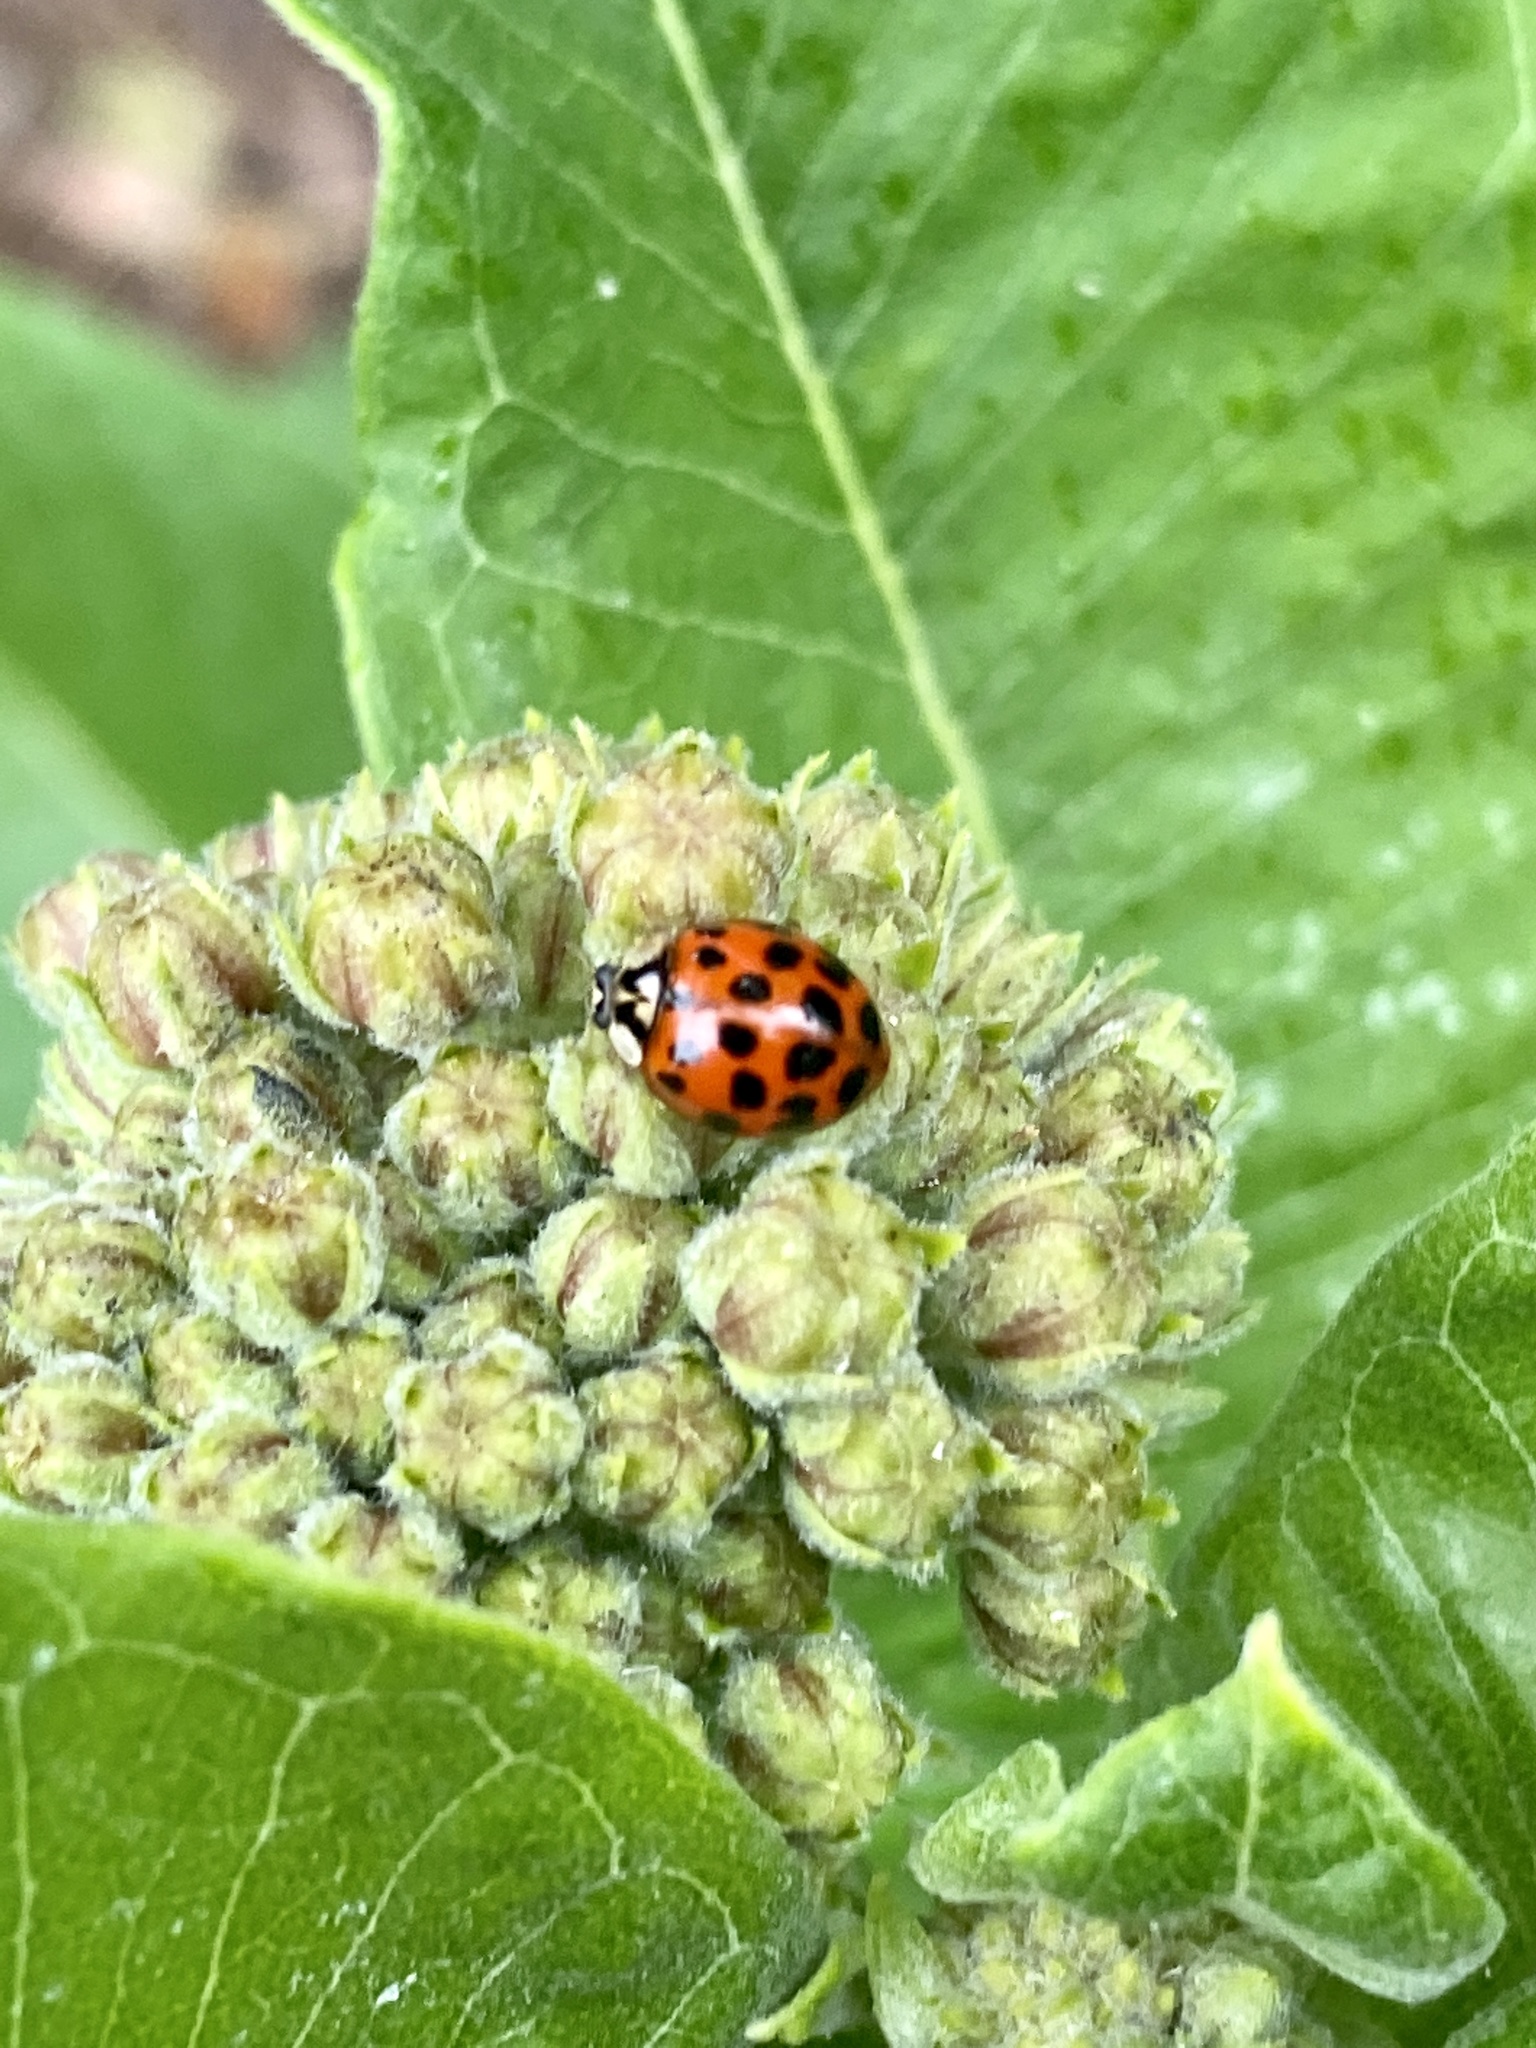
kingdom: Animalia
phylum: Arthropoda
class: Insecta
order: Coleoptera
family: Coccinellidae
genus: Harmonia
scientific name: Harmonia axyridis
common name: Harlequin ladybird
